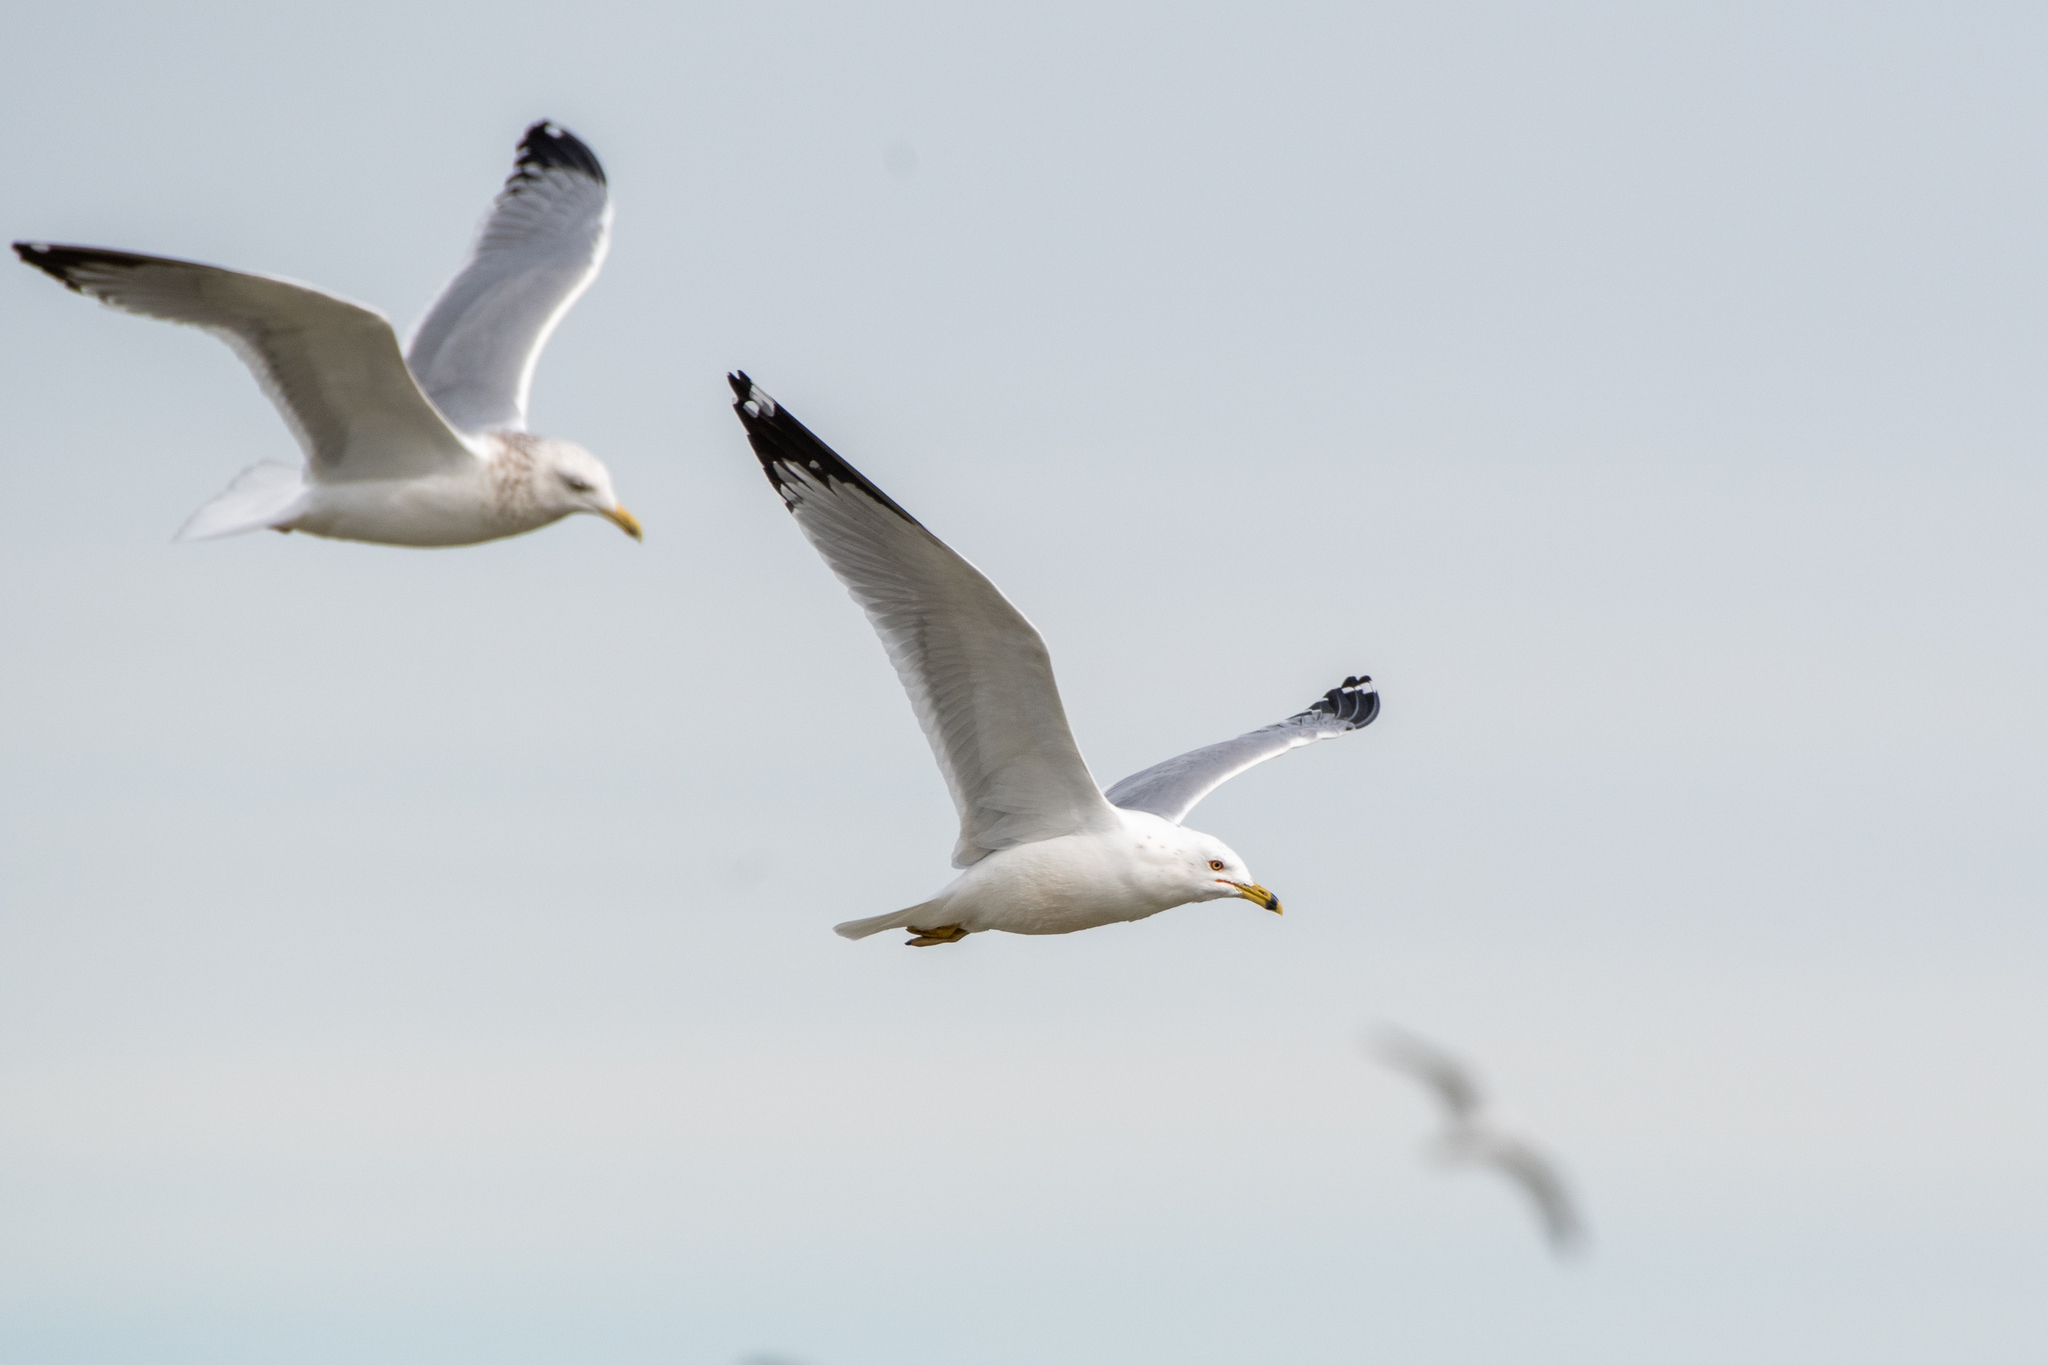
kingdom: Animalia
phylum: Chordata
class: Aves
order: Charadriiformes
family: Laridae
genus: Larus
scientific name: Larus delawarensis
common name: Ring-billed gull
